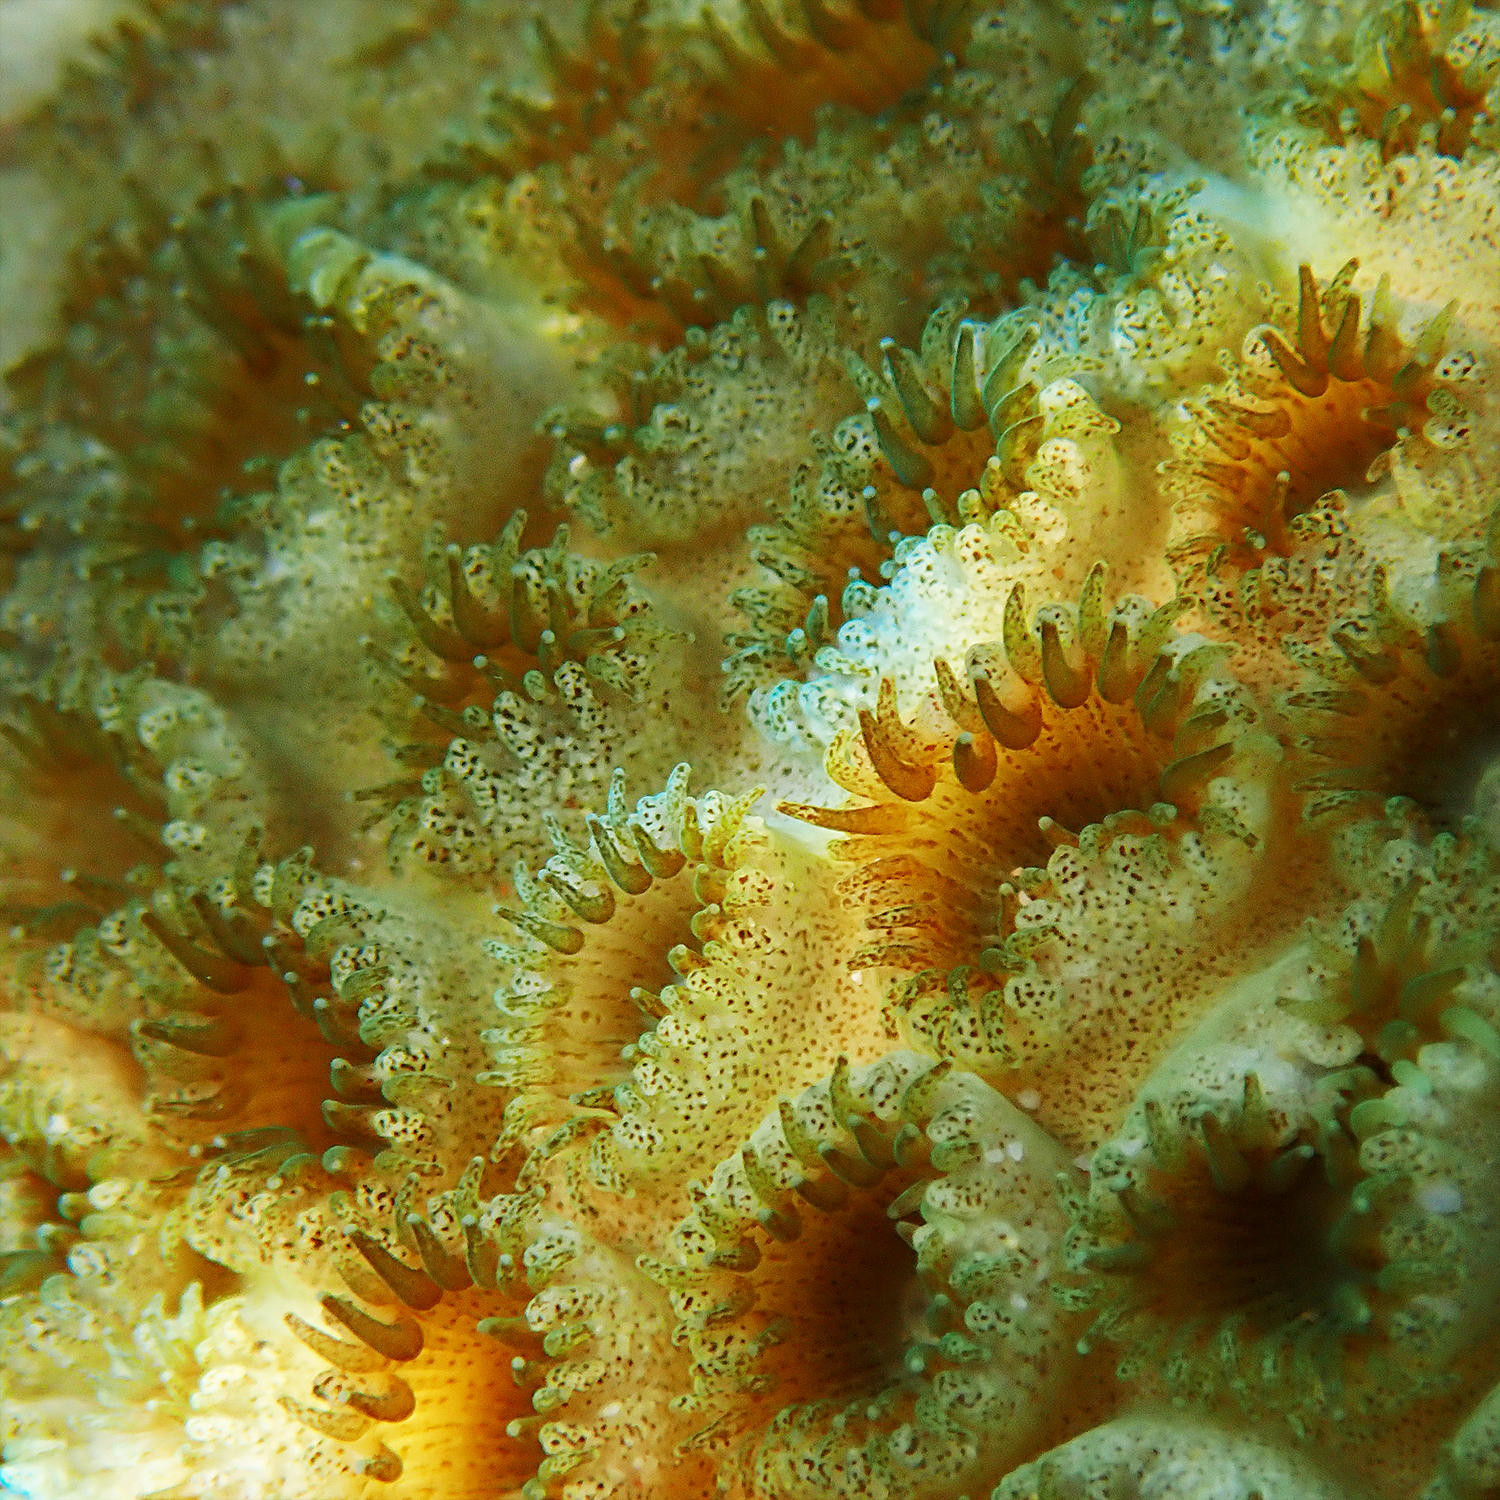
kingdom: Animalia
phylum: Cnidaria
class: Anthozoa
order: Zoantharia
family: Sphenopidae
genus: Palythoa
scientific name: Palythoa tuberculosa
